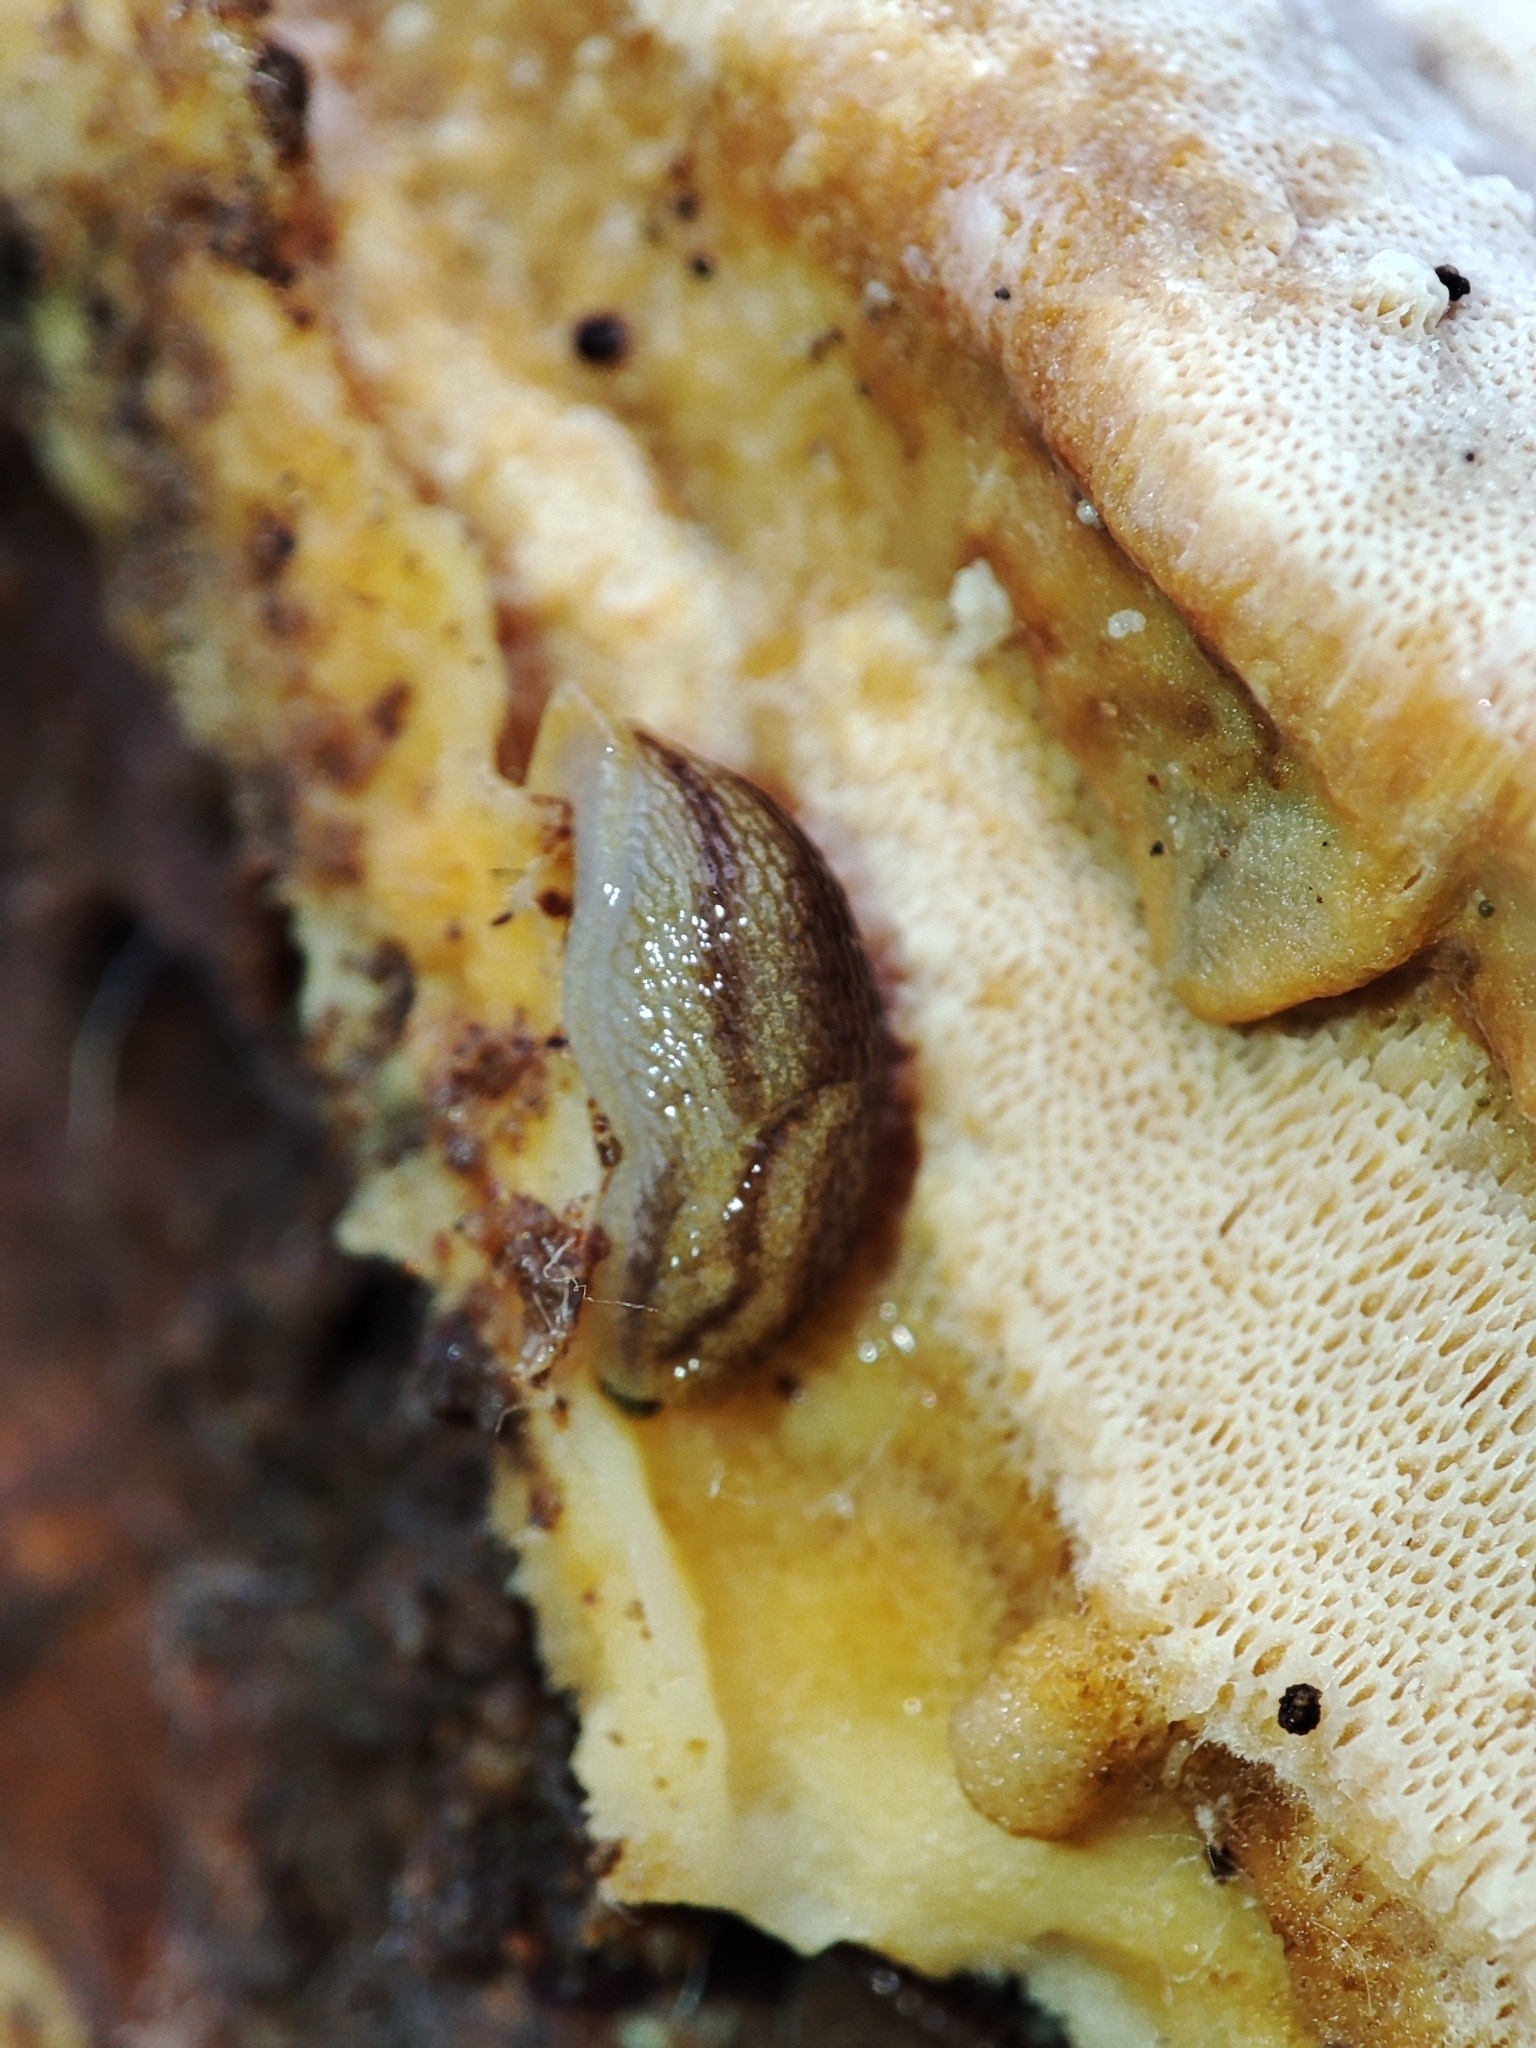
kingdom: Animalia
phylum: Mollusca
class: Gastropoda
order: Stylommatophora
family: Arionidae
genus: Arion
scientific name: Arion fuscus
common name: Northern dusky slug
